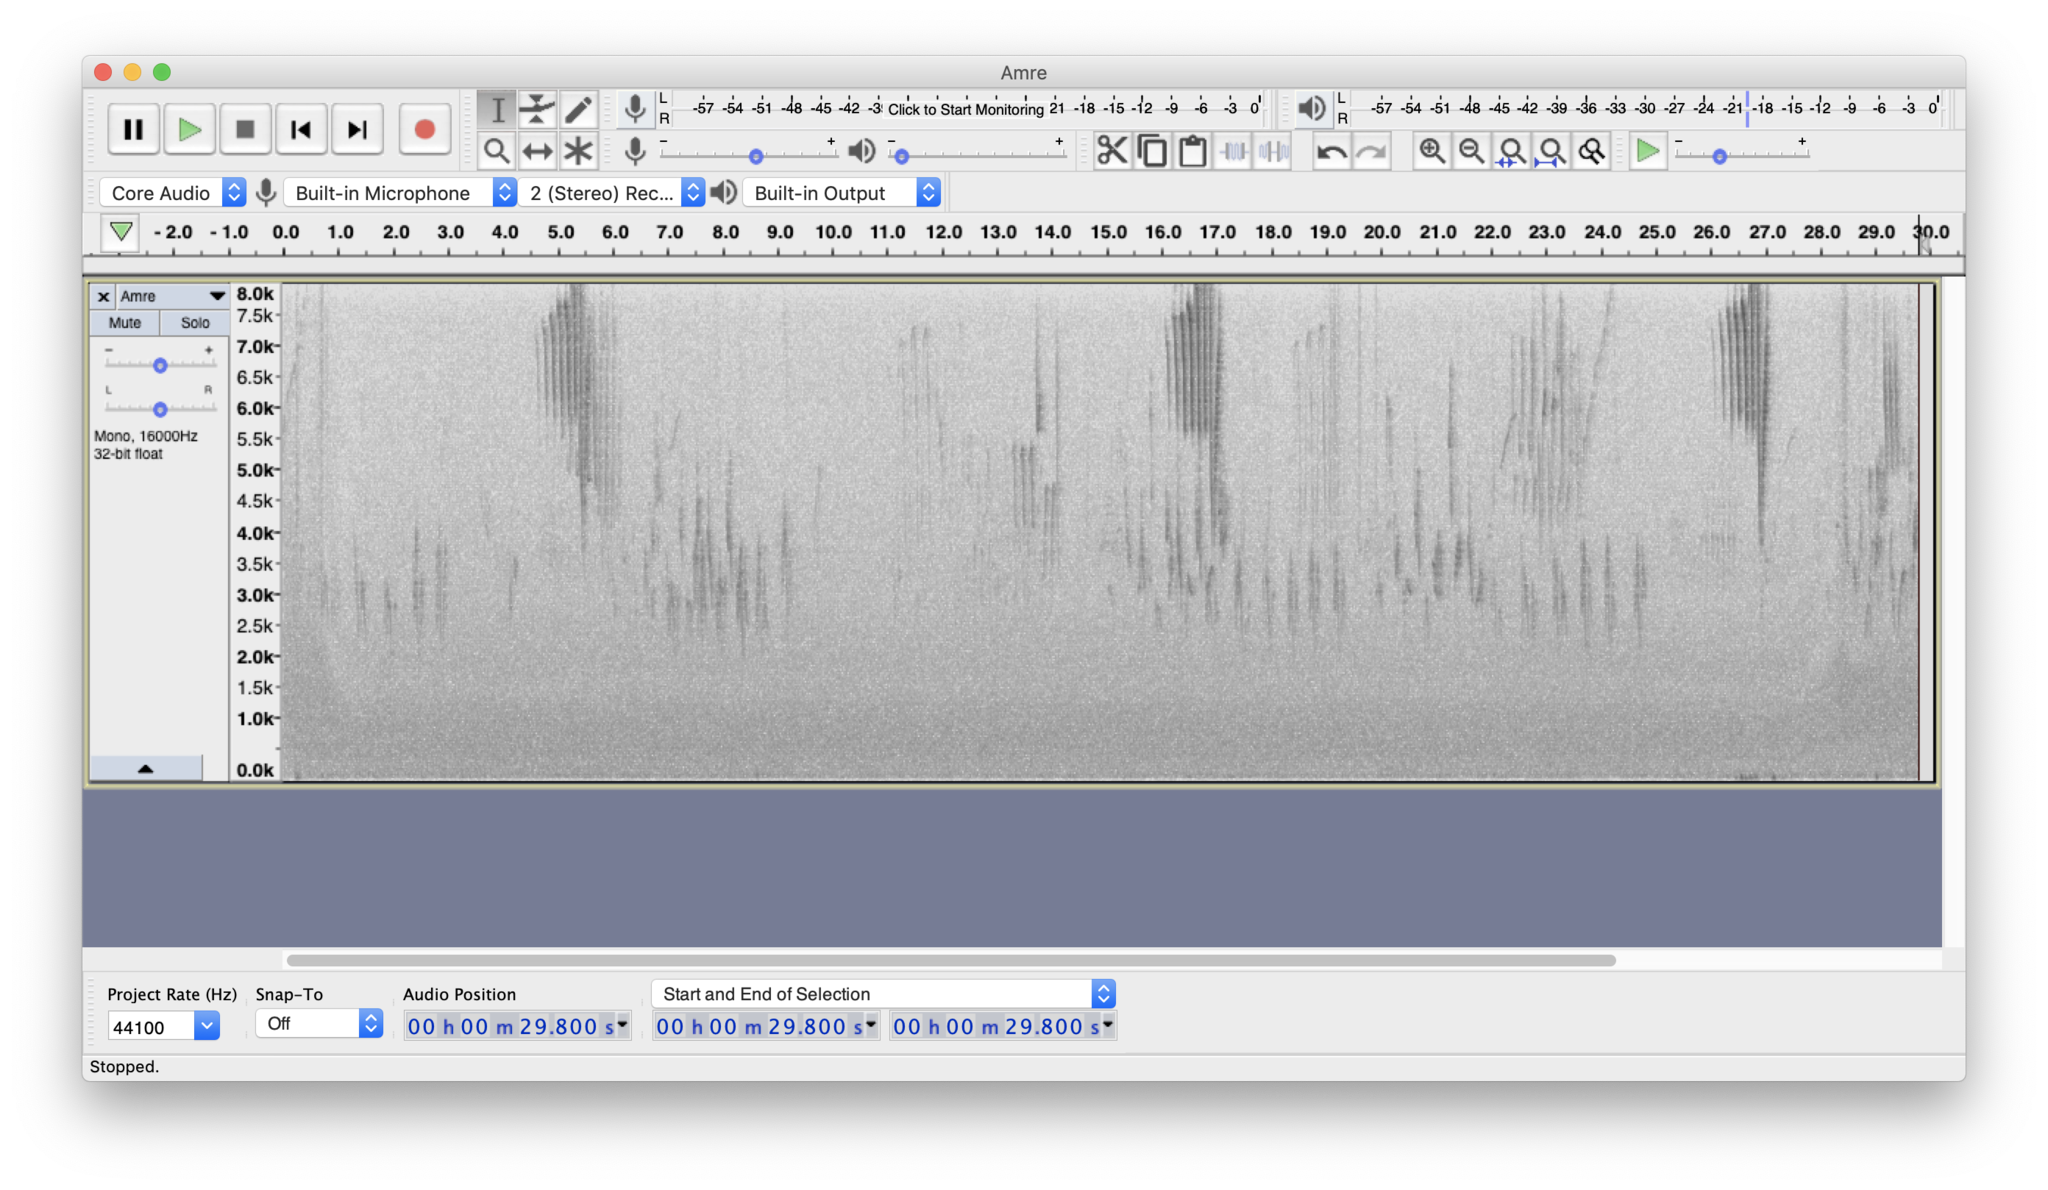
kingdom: Animalia
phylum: Chordata
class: Aves
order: Passeriformes
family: Parulidae
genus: Setophaga
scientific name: Setophaga ruticilla
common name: American redstart
